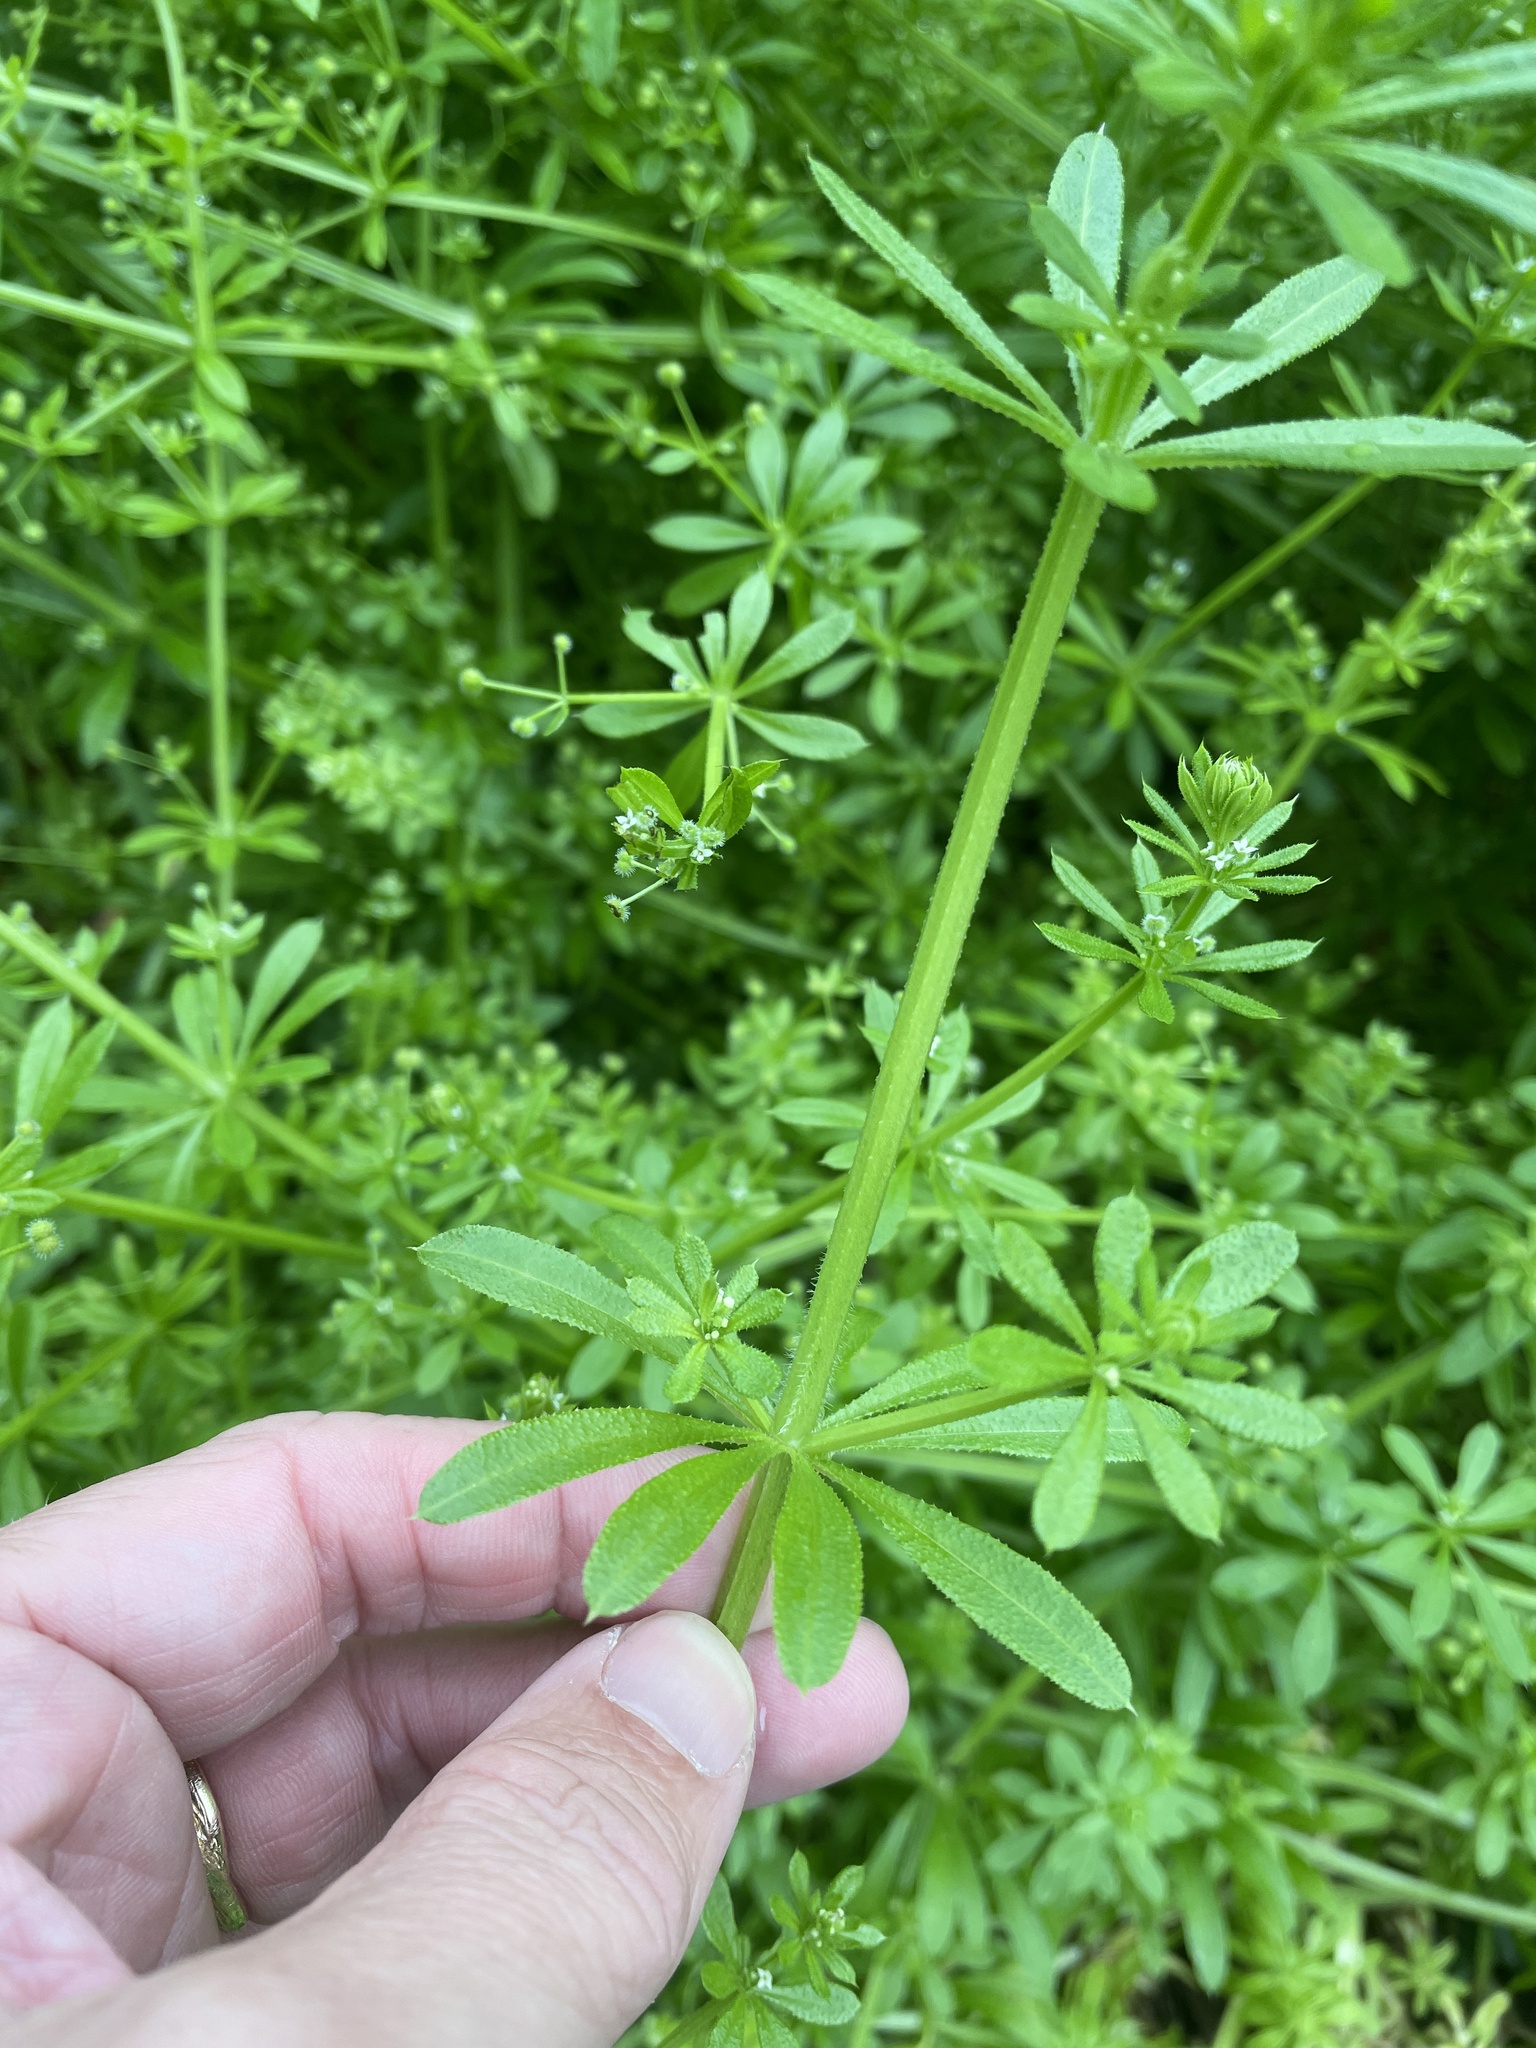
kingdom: Plantae
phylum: Tracheophyta
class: Magnoliopsida
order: Gentianales
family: Rubiaceae
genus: Galium
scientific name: Galium aparine
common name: Cleavers
